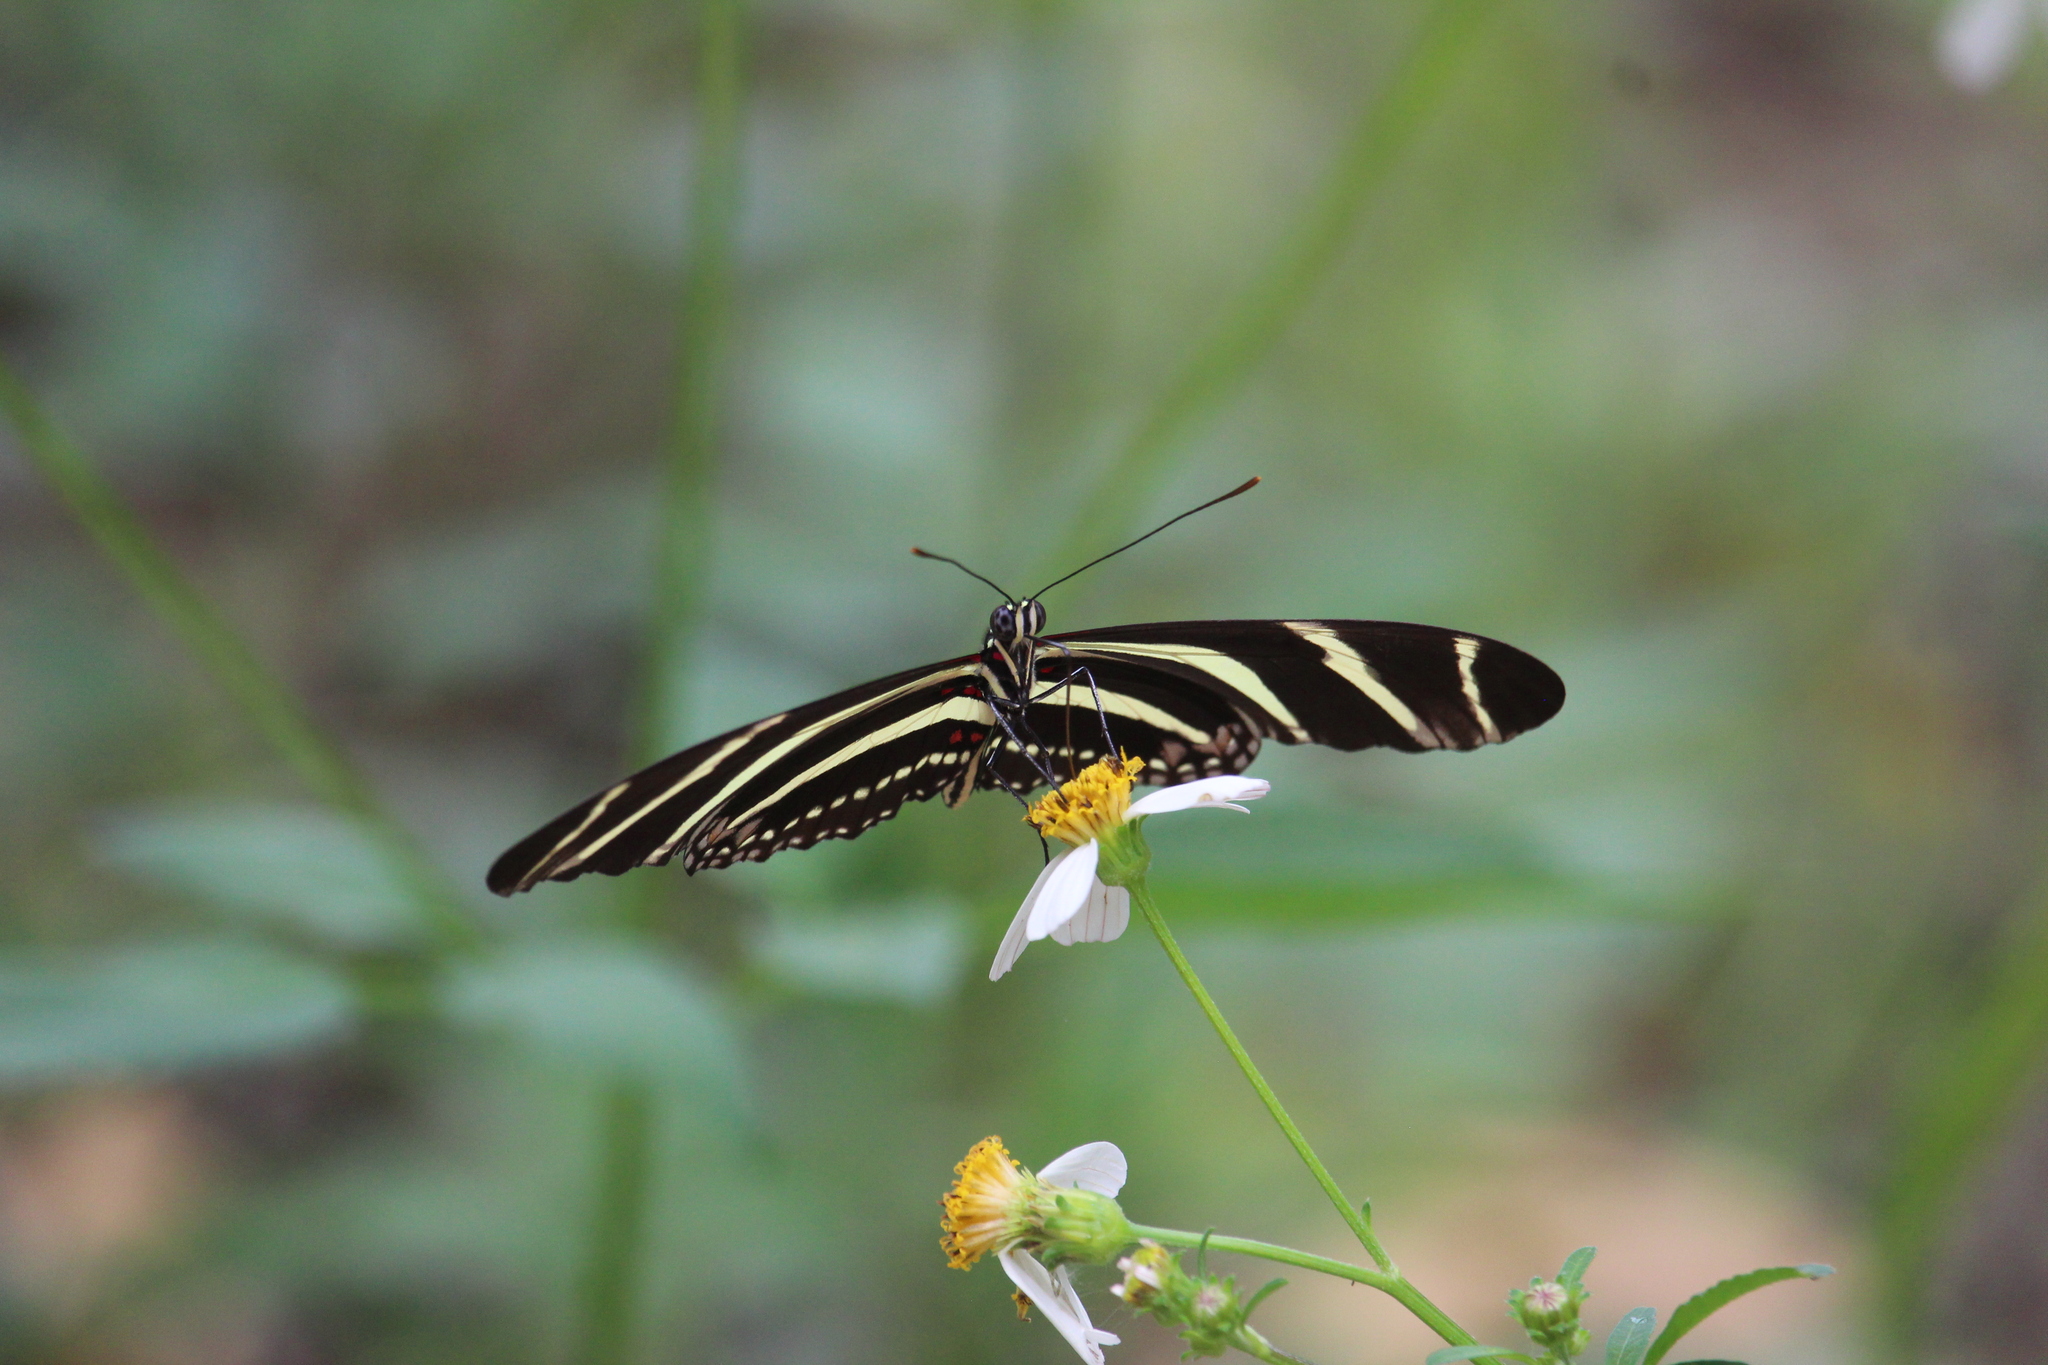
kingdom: Animalia
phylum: Arthropoda
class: Insecta
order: Lepidoptera
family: Nymphalidae
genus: Heliconius
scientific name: Heliconius charithonia
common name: Zebra long wing
